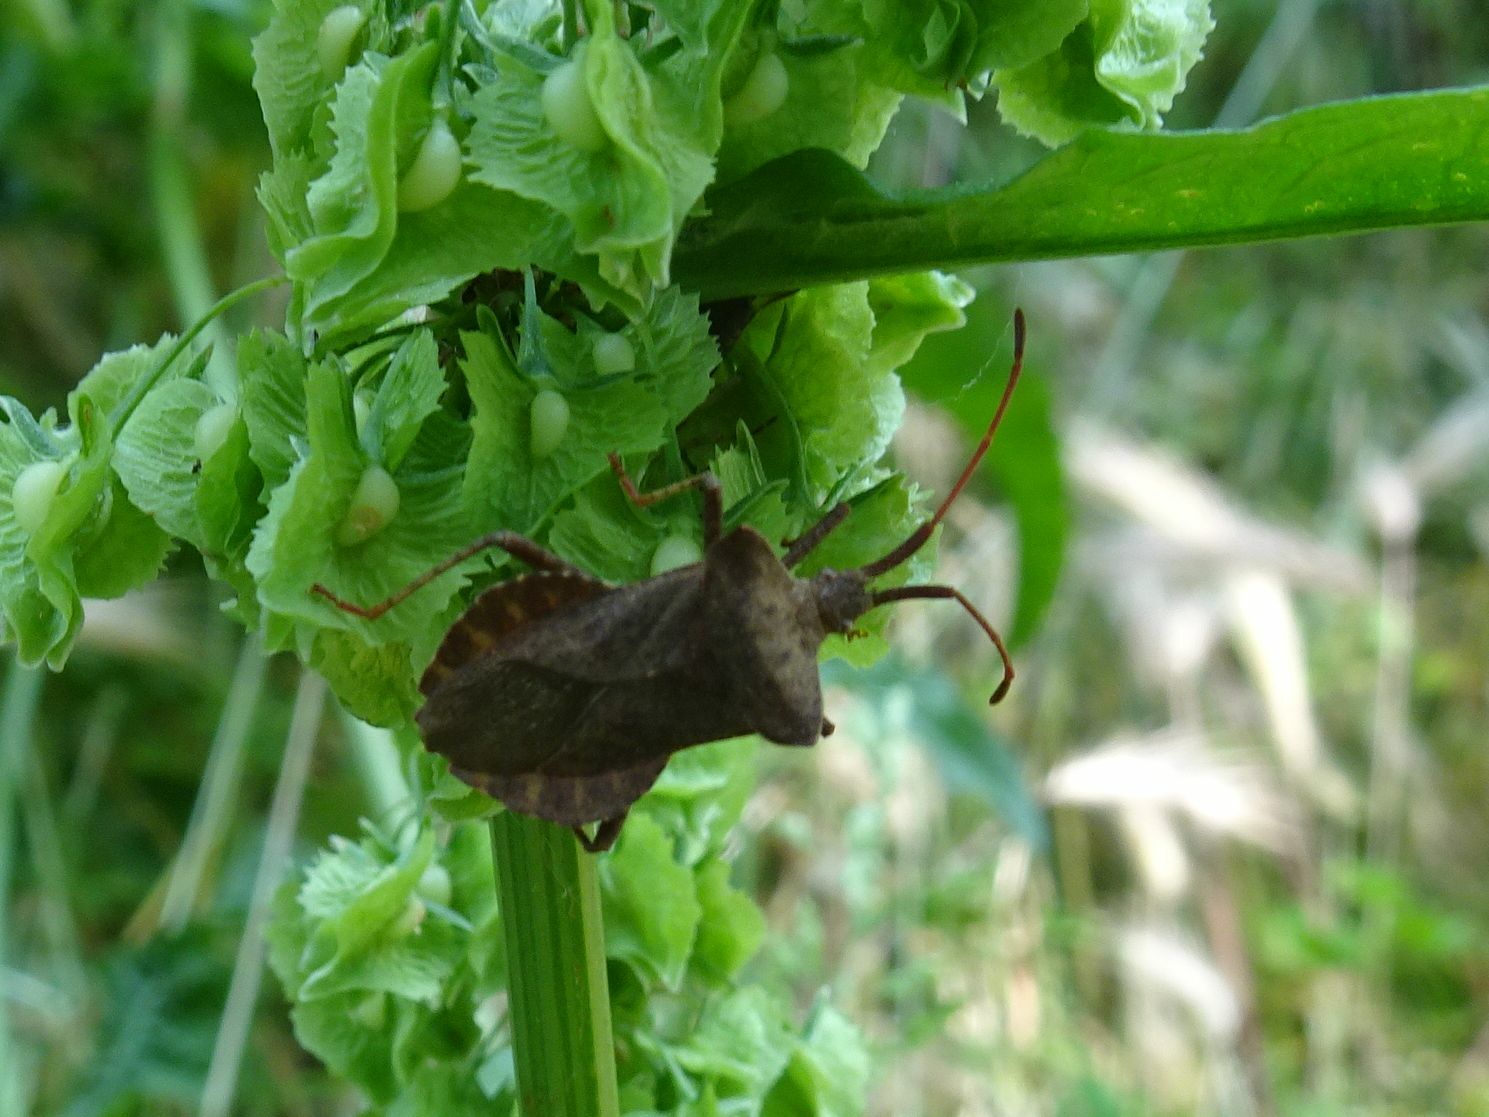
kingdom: Animalia
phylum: Arthropoda
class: Insecta
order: Hemiptera
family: Coreidae
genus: Coreus
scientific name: Coreus marginatus
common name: Dock bug
